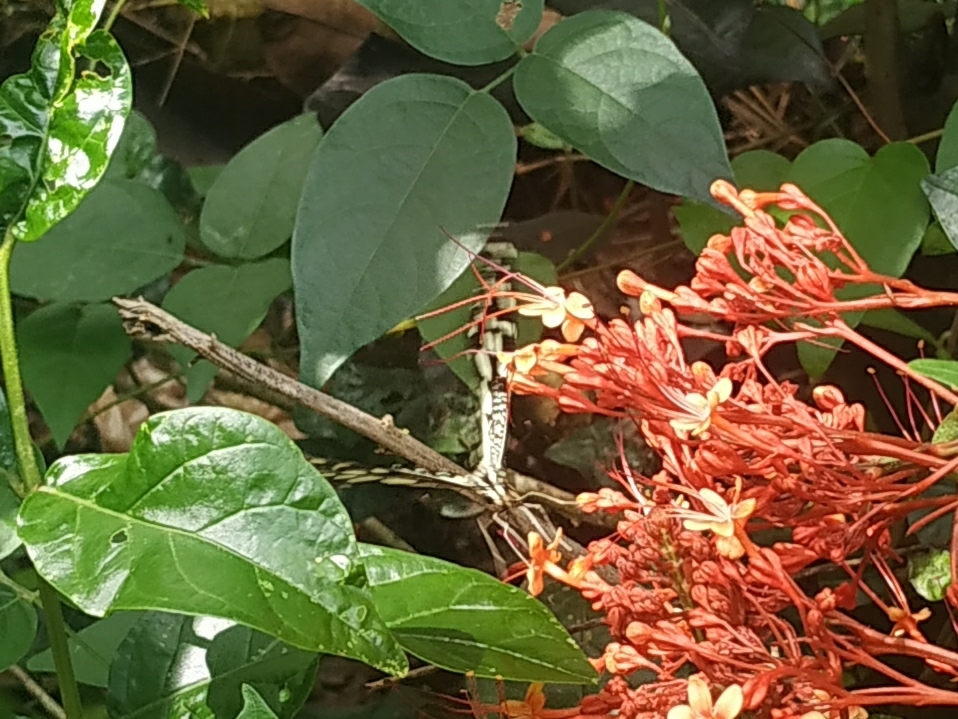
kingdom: Animalia
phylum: Arthropoda
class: Insecta
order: Lepidoptera
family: Papilionidae
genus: Papilio
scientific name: Papilio demoleus
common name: Lime butterfly
